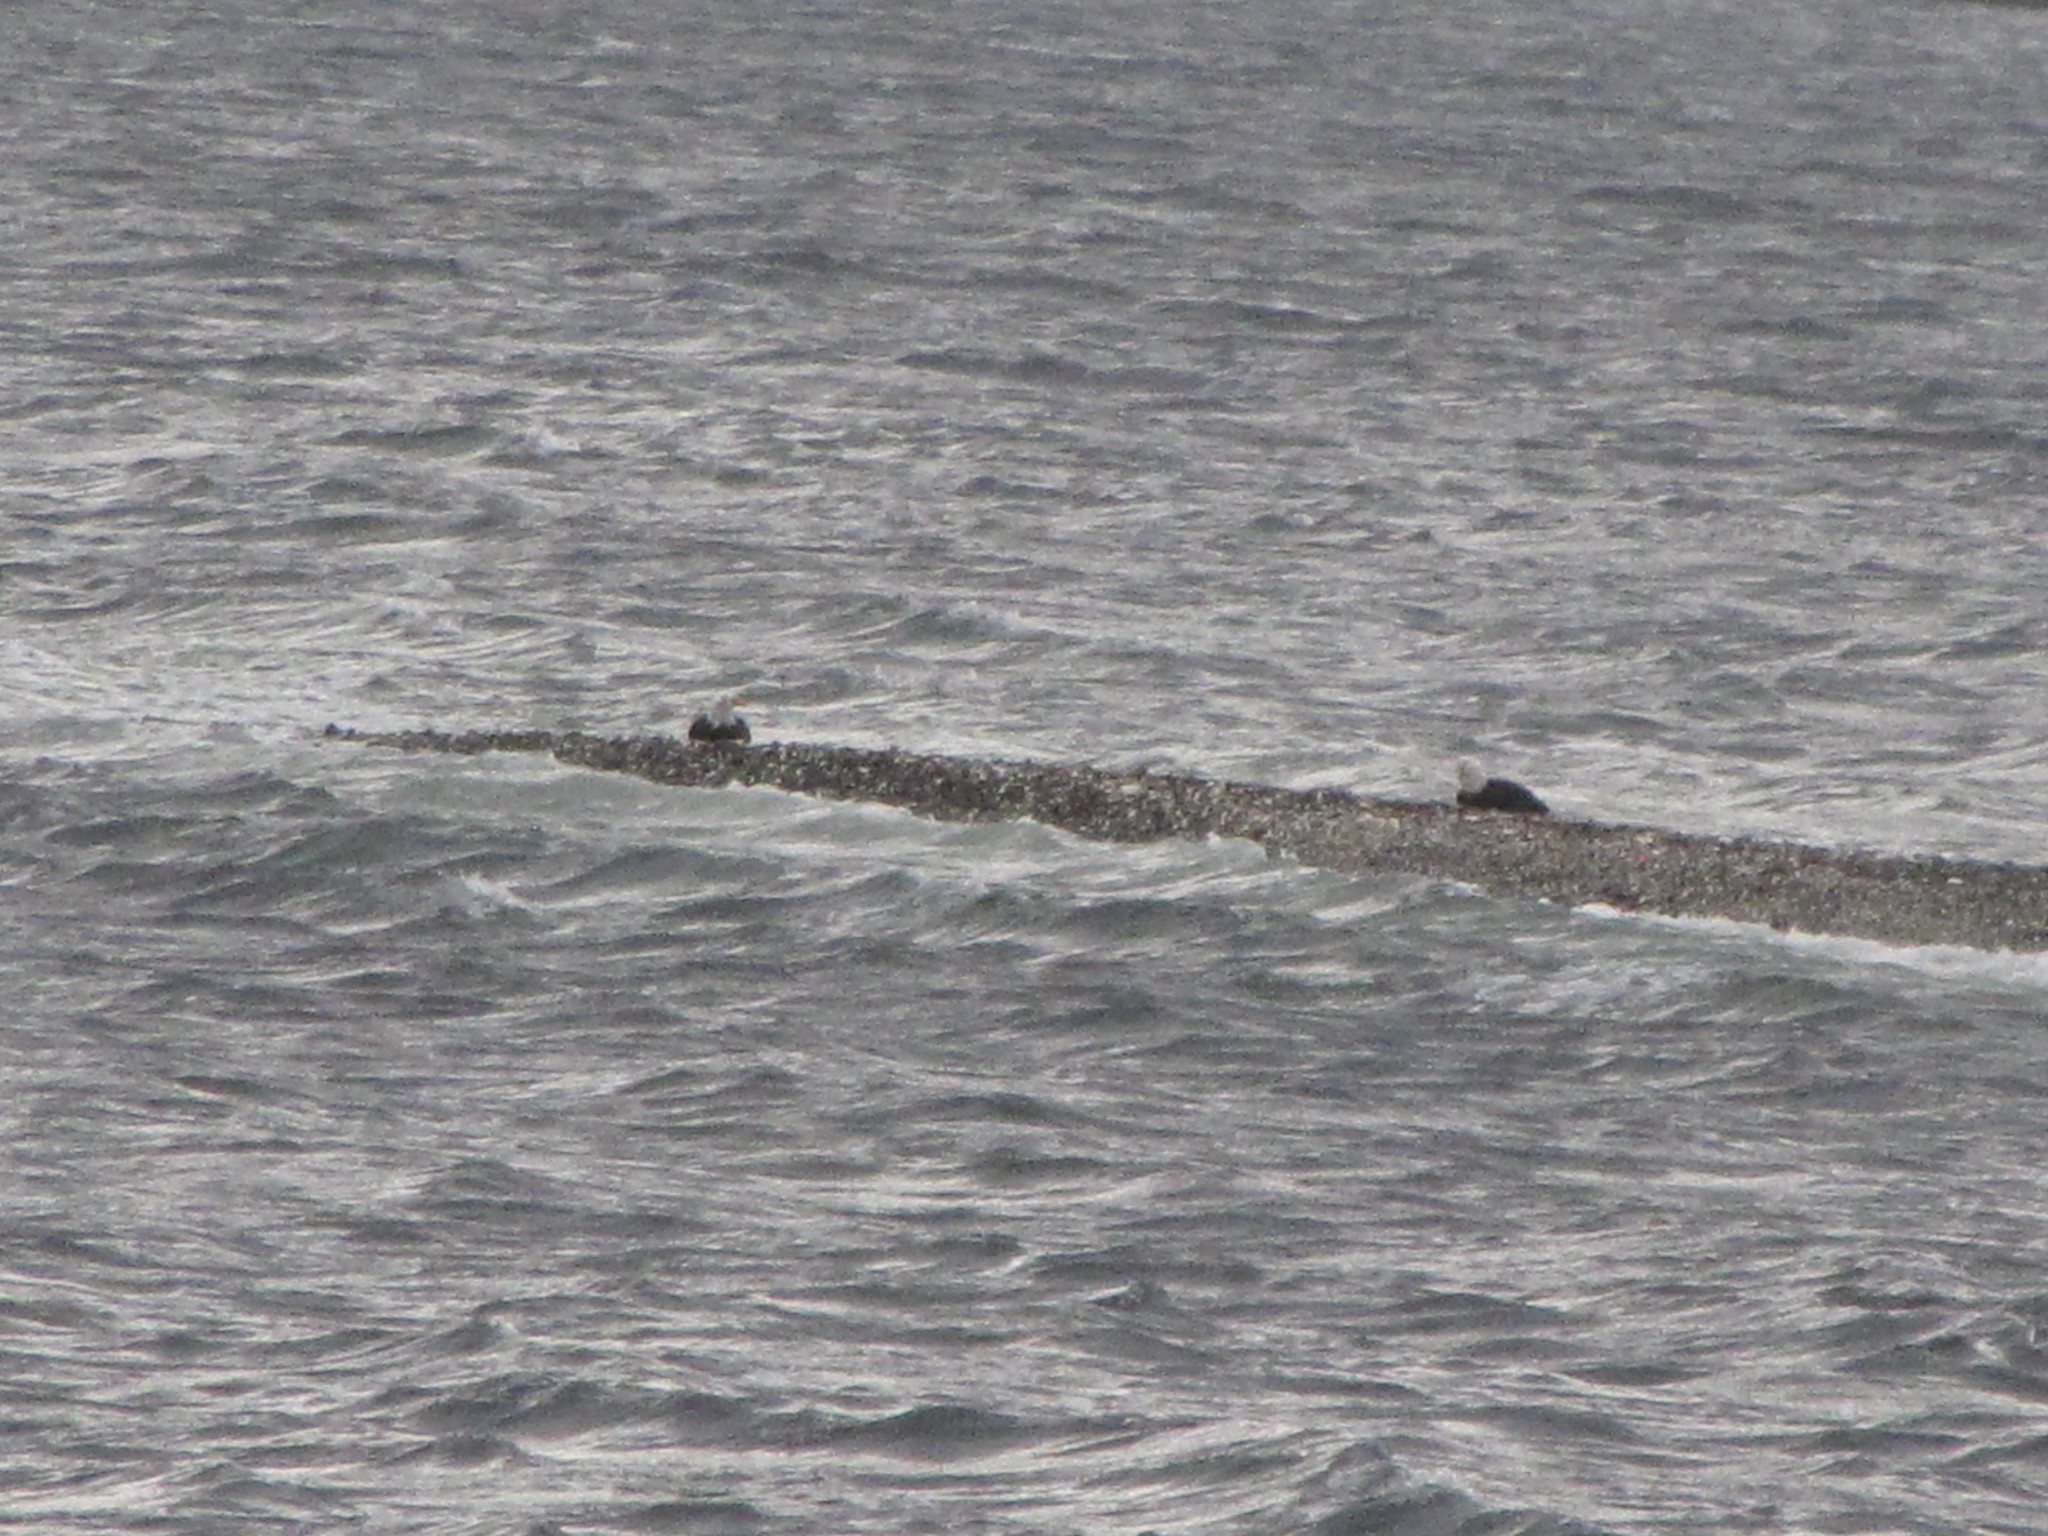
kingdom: Animalia
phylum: Chordata
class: Aves
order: Accipitriformes
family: Accipitridae
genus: Haliaeetus
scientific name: Haliaeetus leucocephalus
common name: Bald eagle
